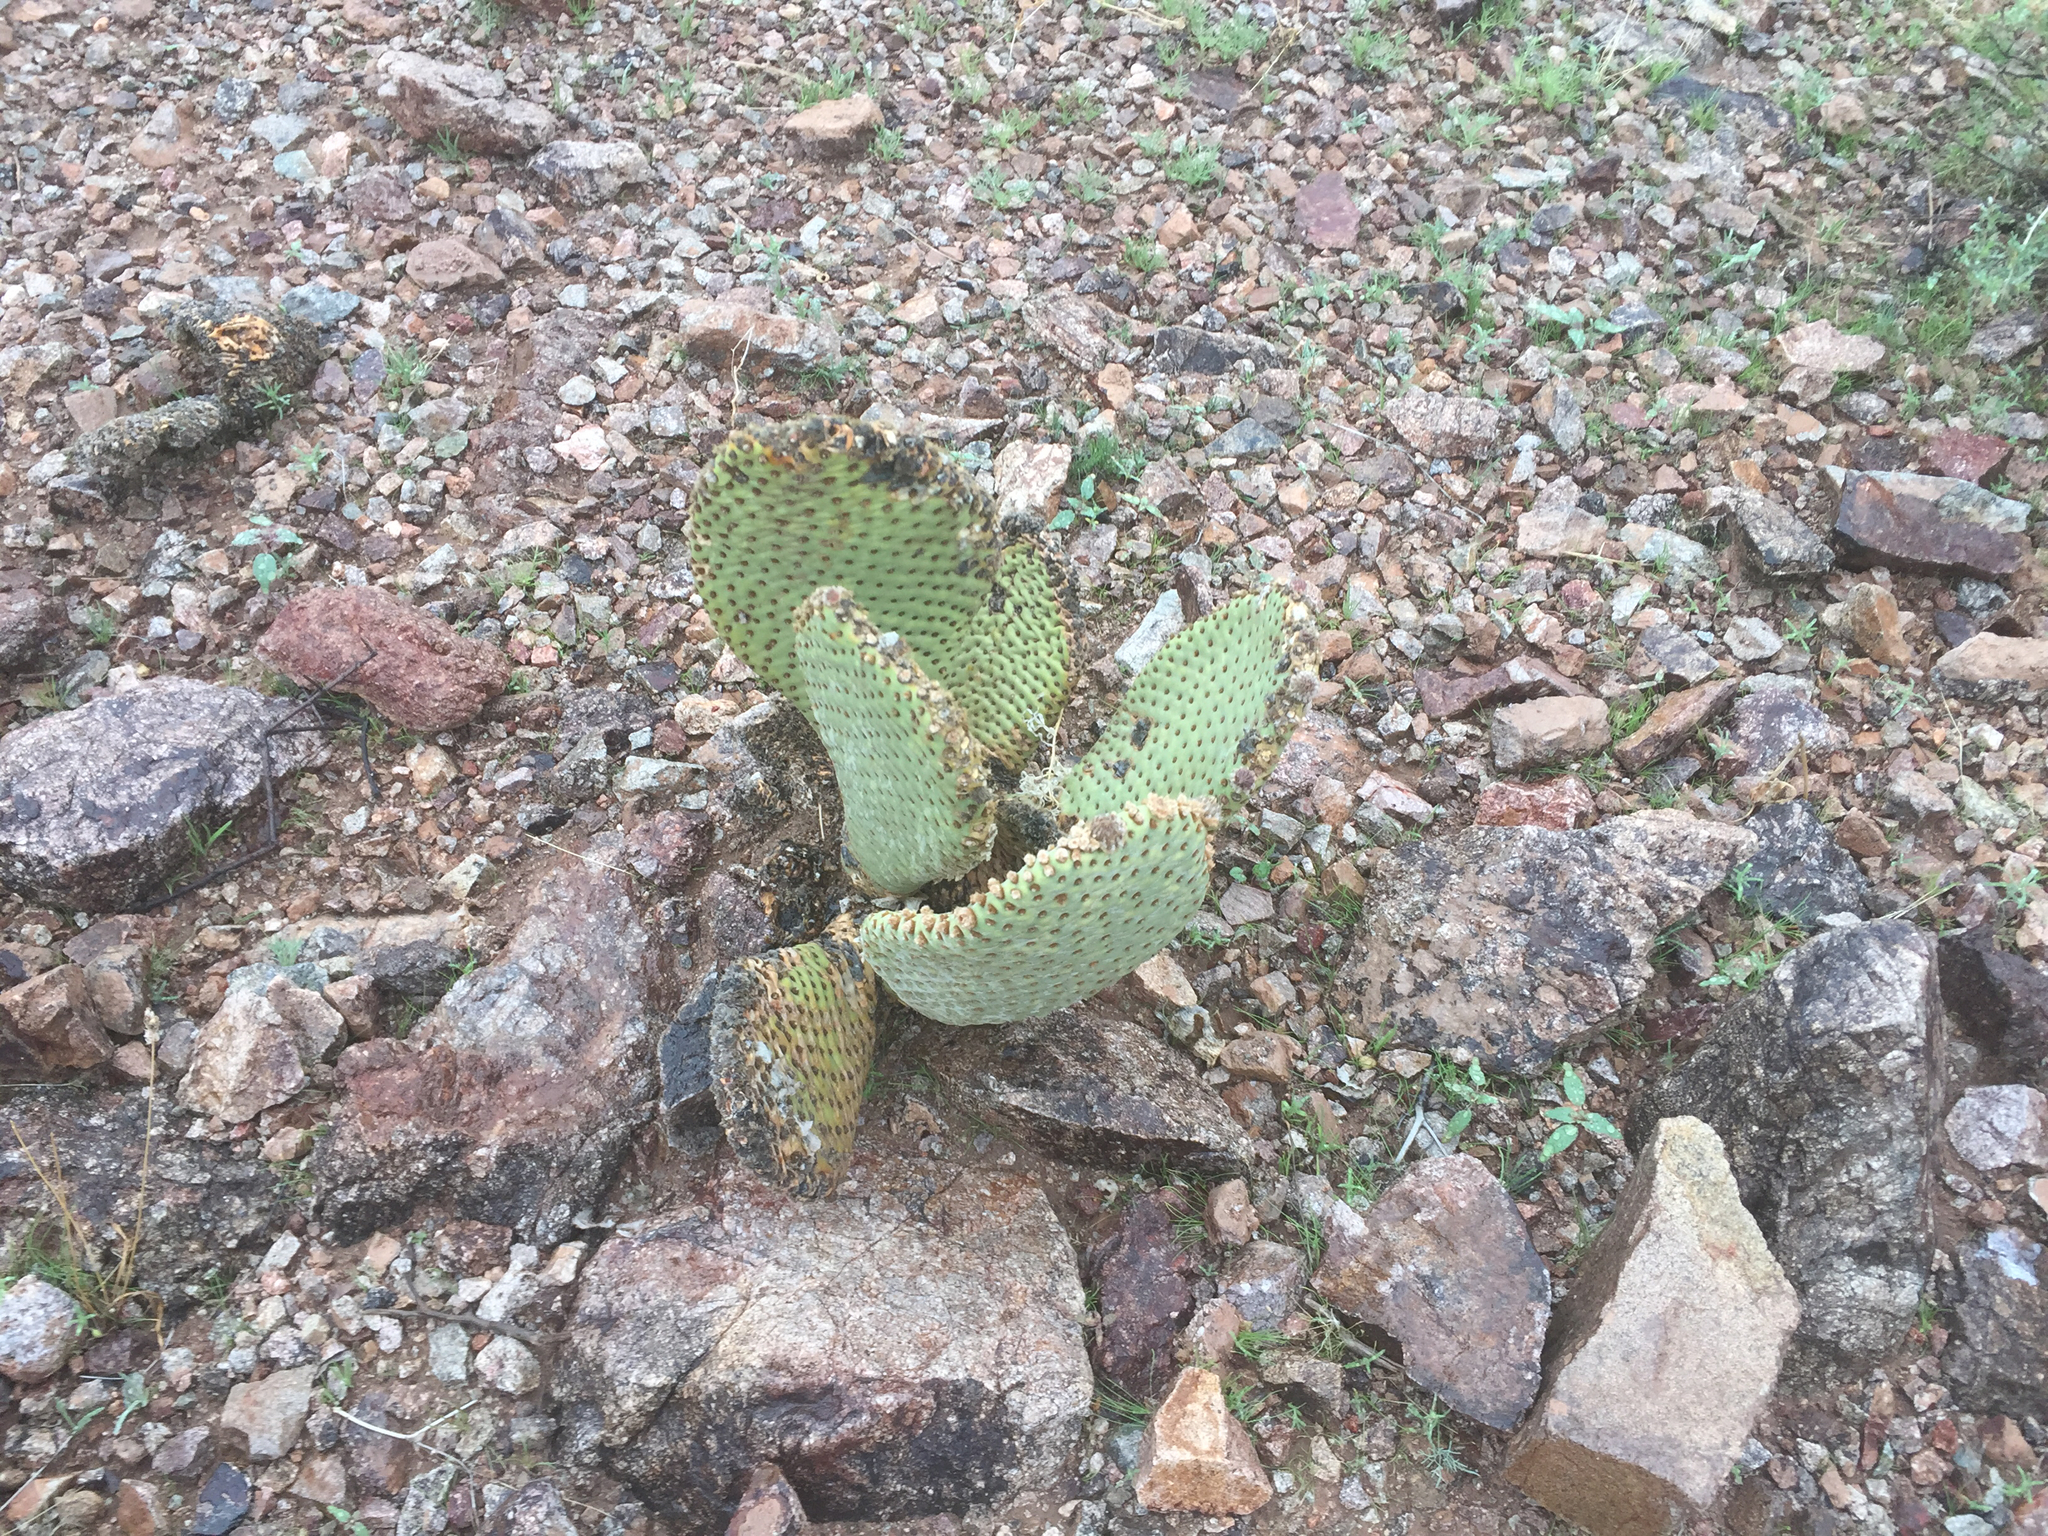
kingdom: Plantae
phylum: Tracheophyta
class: Magnoliopsida
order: Caryophyllales
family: Cactaceae
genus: Opuntia
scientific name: Opuntia basilaris
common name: Beavertail prickly-pear
